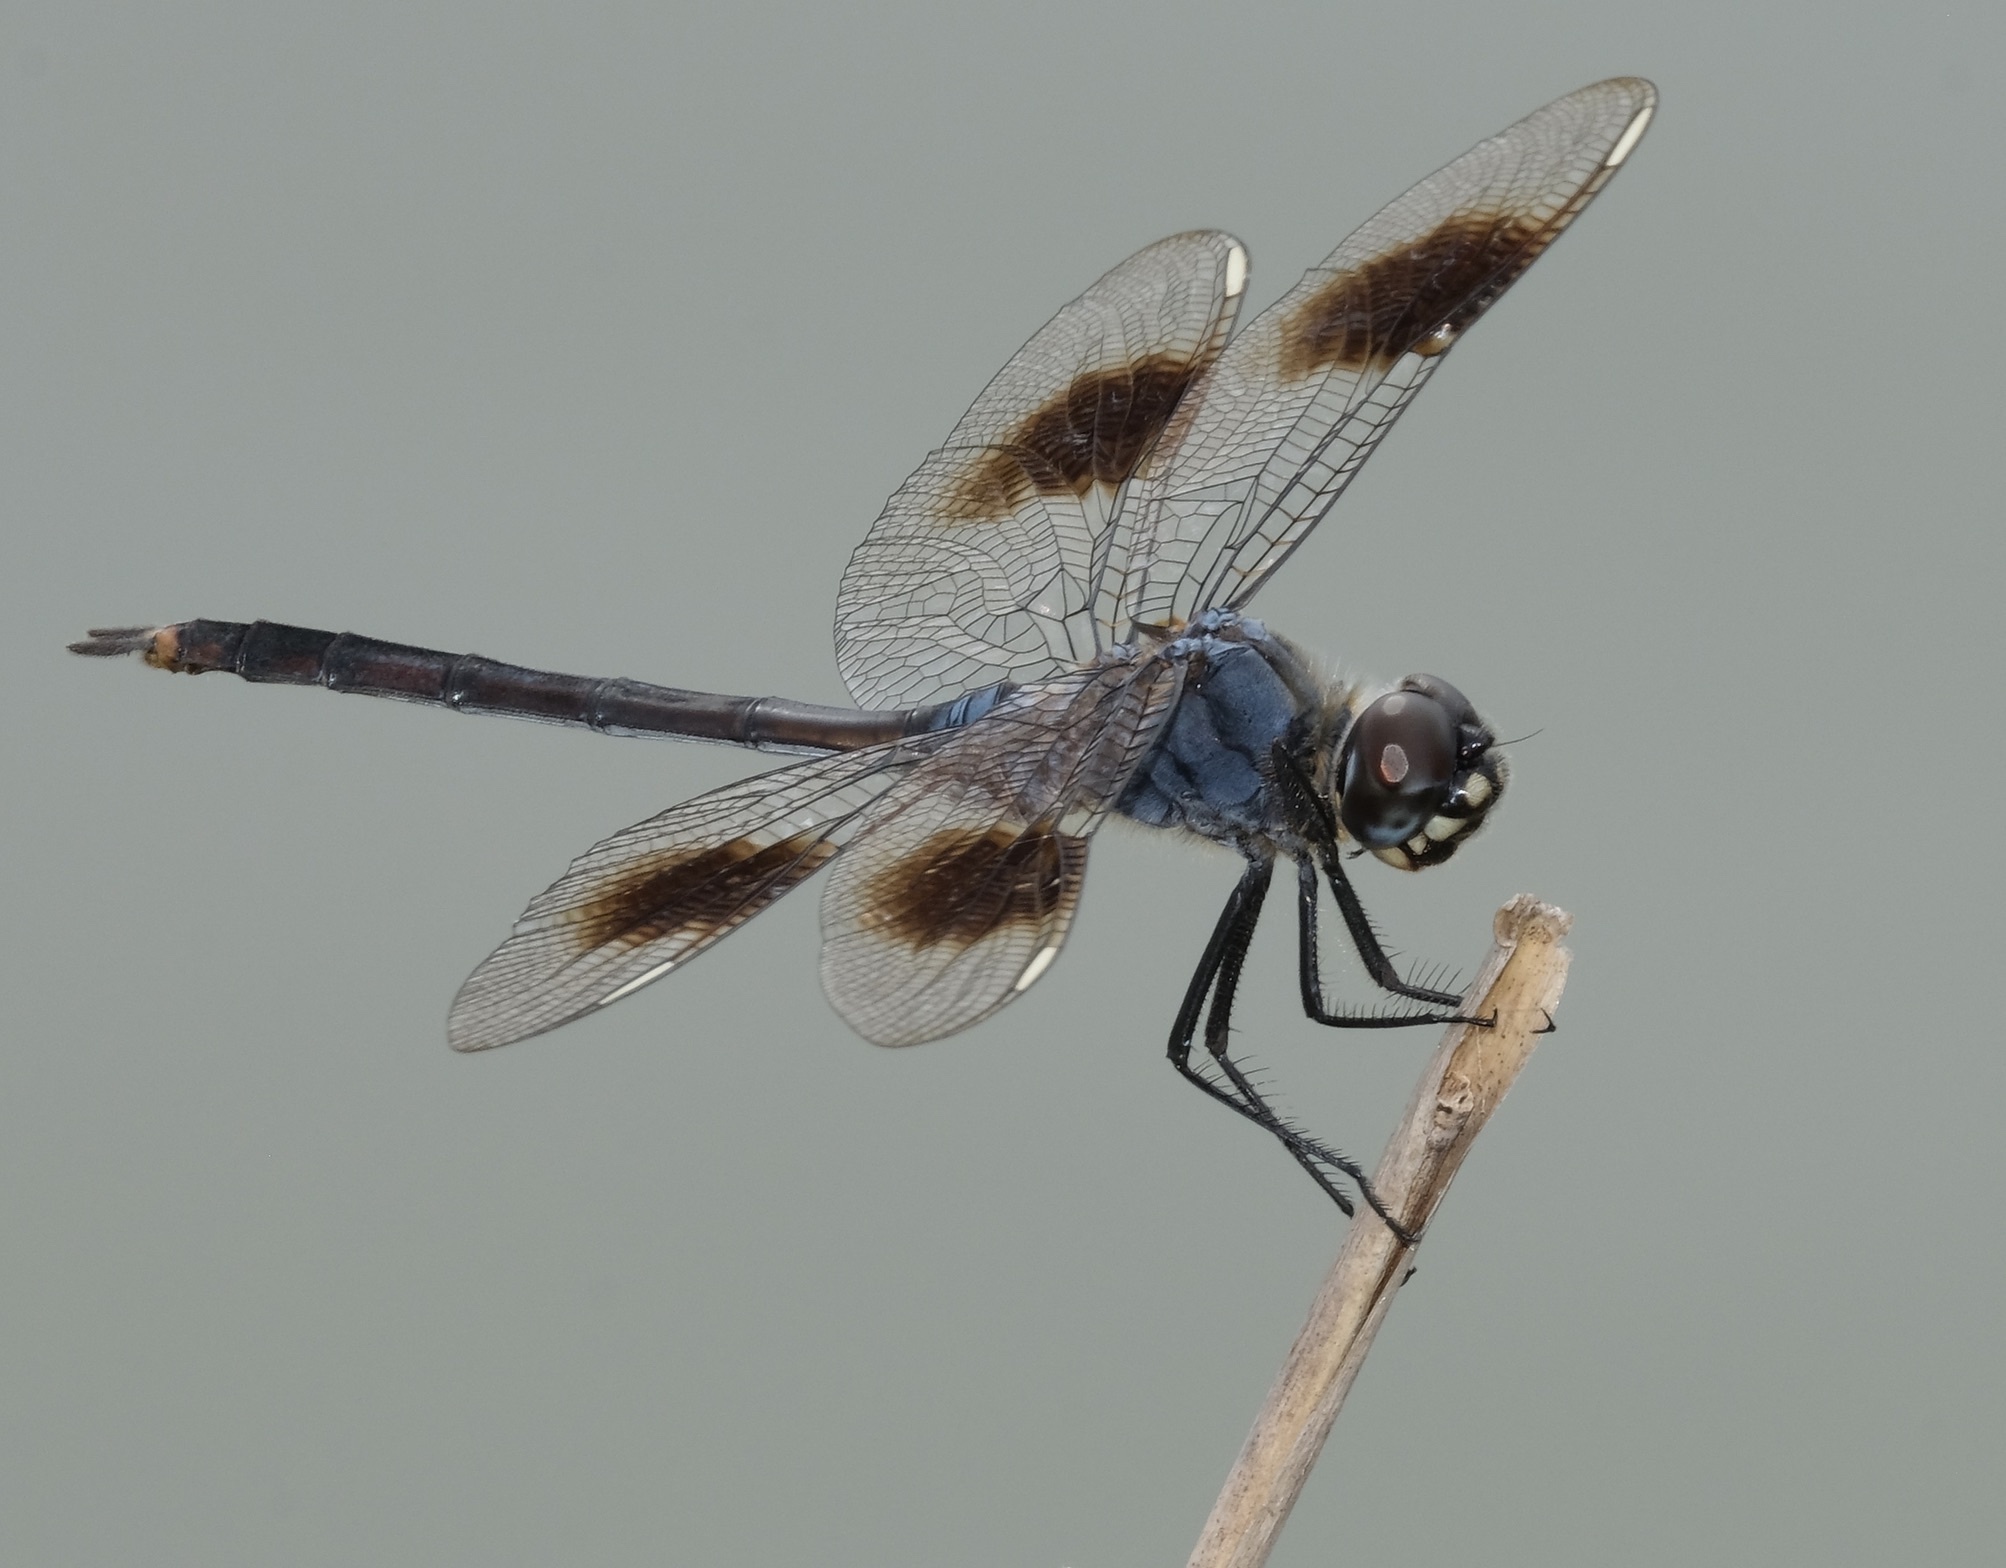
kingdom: Animalia
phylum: Arthropoda
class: Insecta
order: Odonata
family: Libellulidae
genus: Brachymesia
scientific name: Brachymesia gravida
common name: Four-spotted pennant
